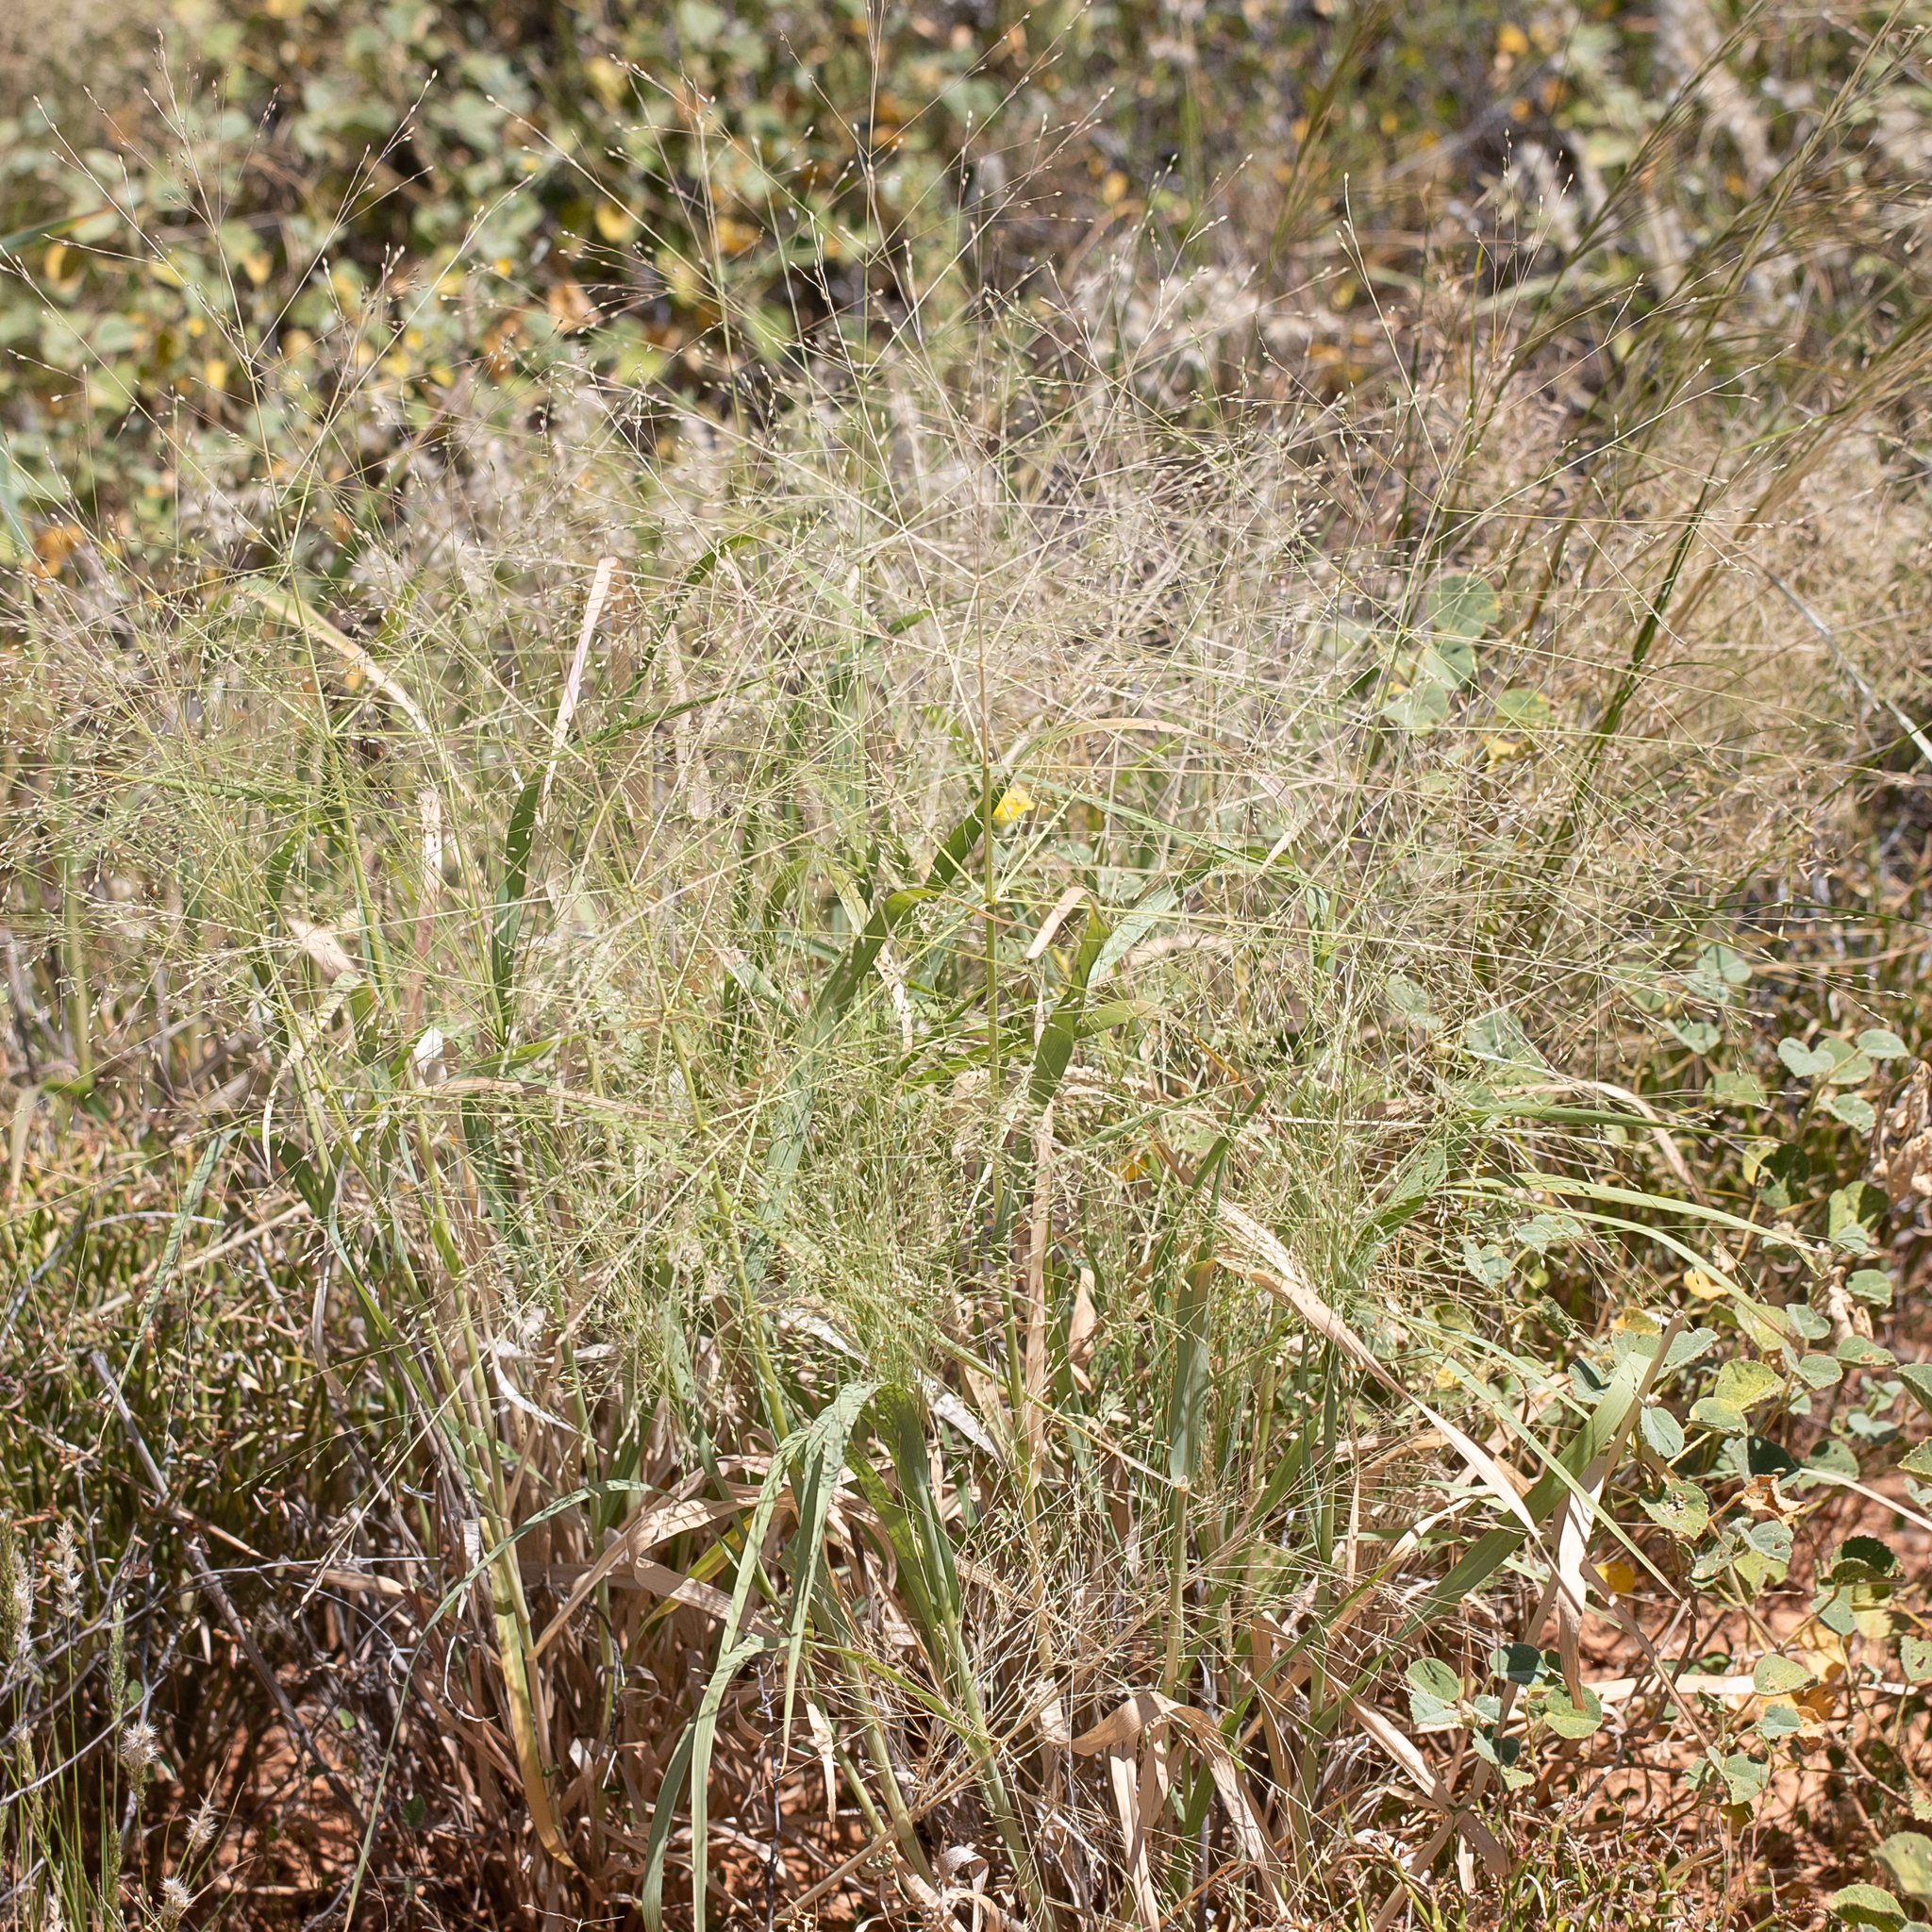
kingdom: Plantae
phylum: Tracheophyta
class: Liliopsida
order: Poales
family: Poaceae
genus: Panicum
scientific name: Panicum decompositum
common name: Australian millet
